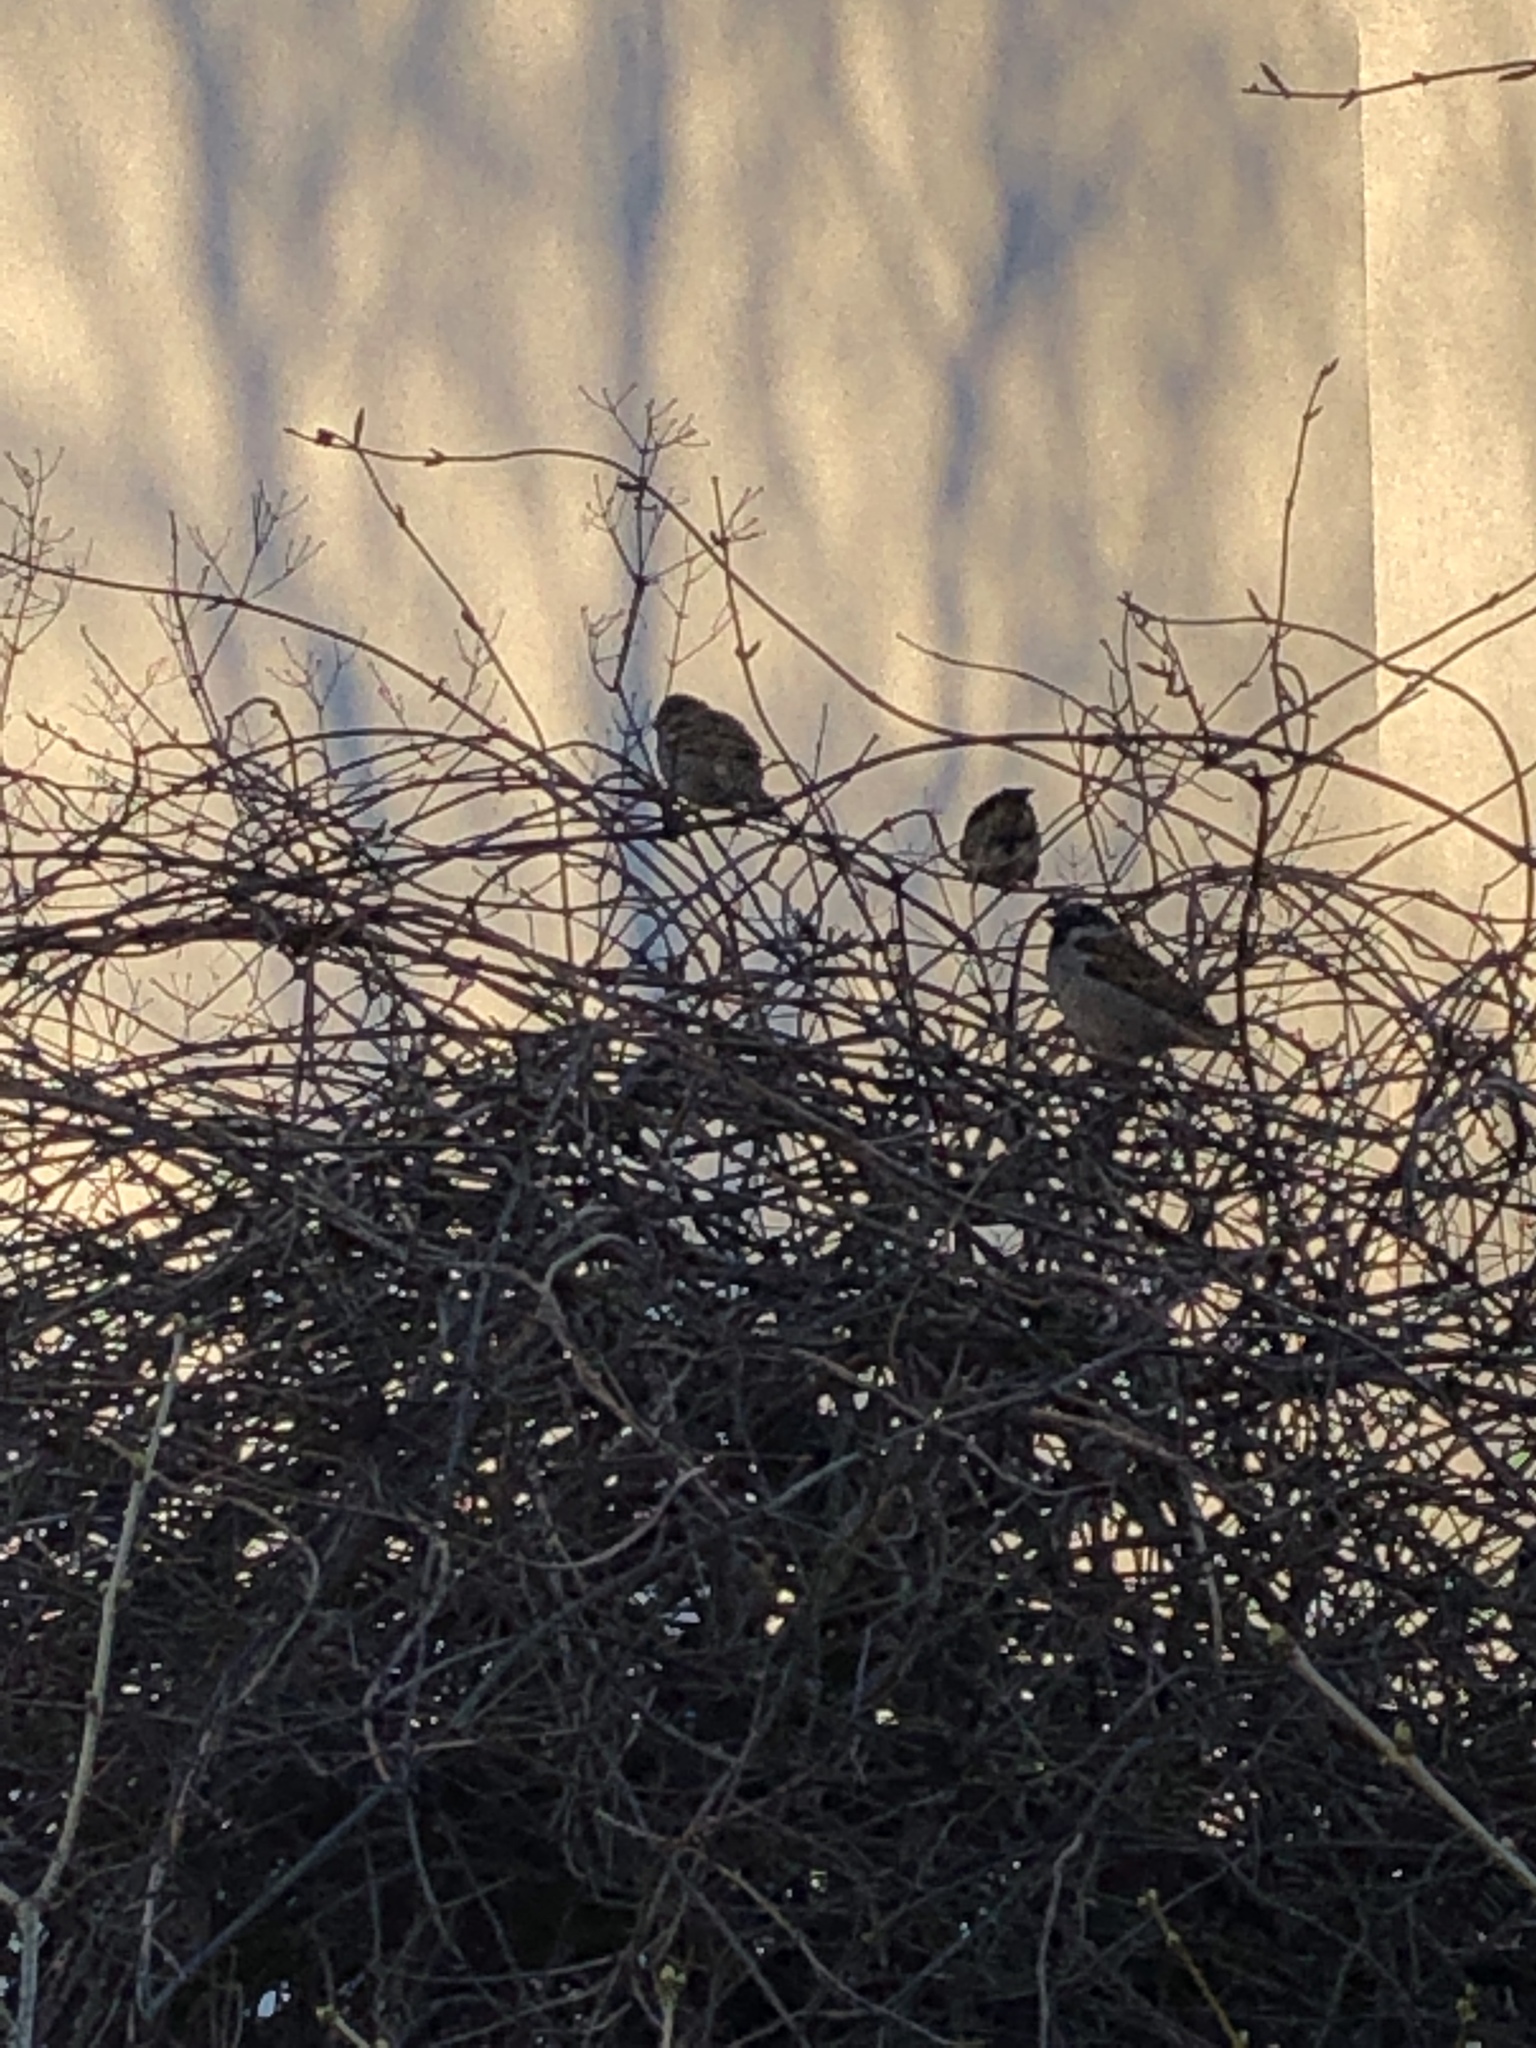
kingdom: Animalia
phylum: Chordata
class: Aves
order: Passeriformes
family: Passeridae
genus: Passer
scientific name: Passer domesticus
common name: House sparrow
